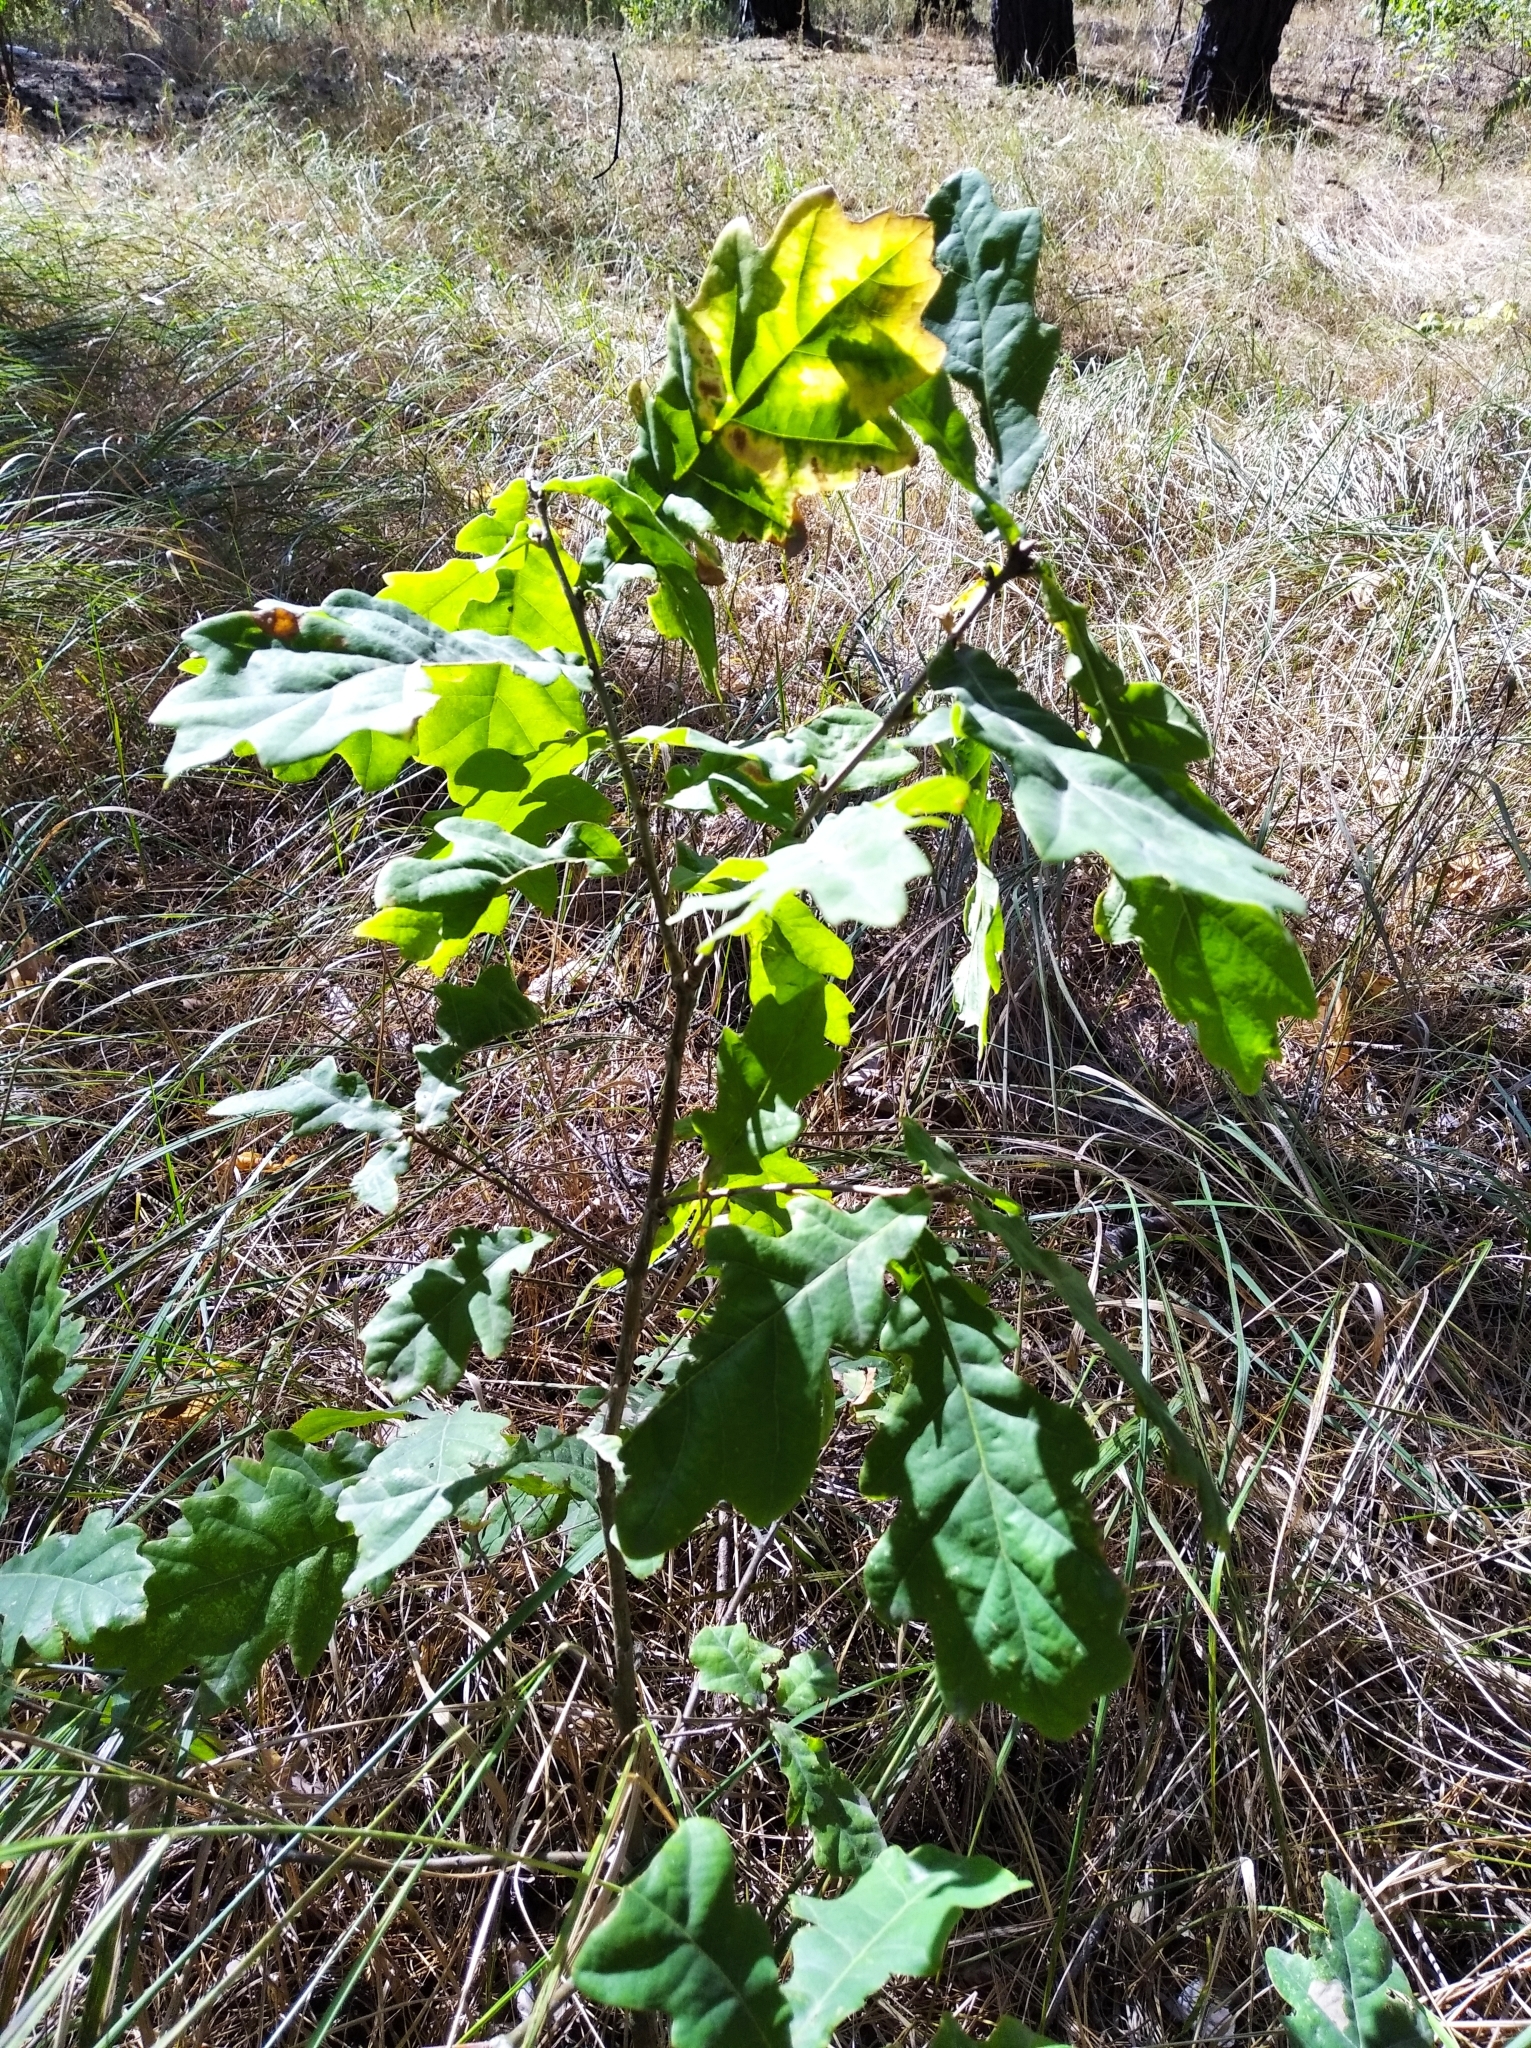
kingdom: Plantae
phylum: Tracheophyta
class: Magnoliopsida
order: Fagales
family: Fagaceae
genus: Quercus
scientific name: Quercus robur
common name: Pedunculate oak
